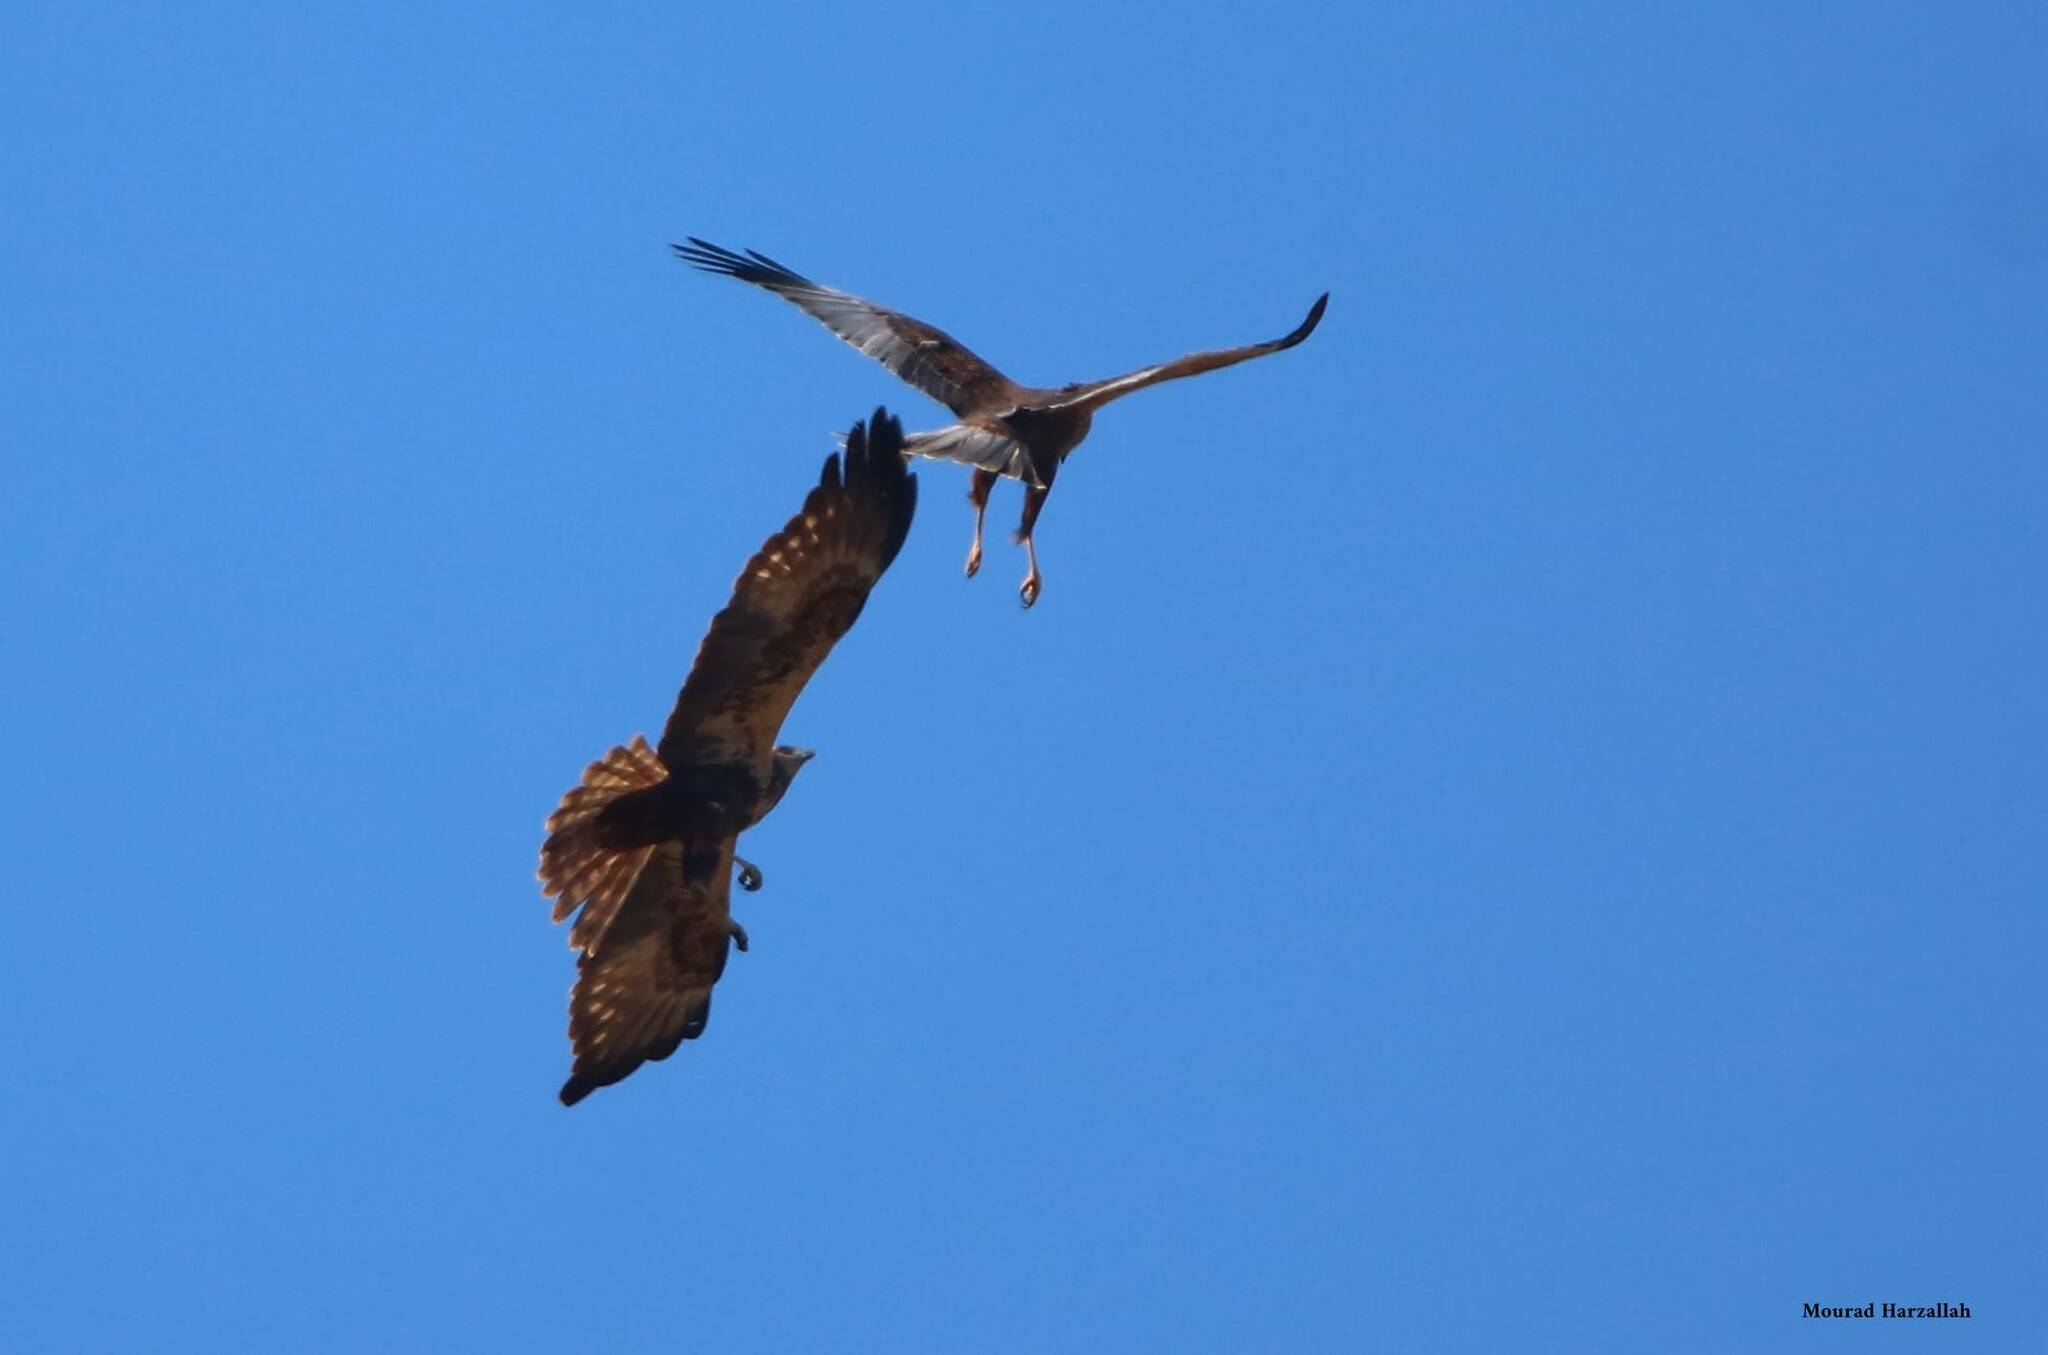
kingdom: Animalia
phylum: Chordata
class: Aves
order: Accipitriformes
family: Accipitridae
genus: Circus
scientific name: Circus aeruginosus
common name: Western marsh harrier
